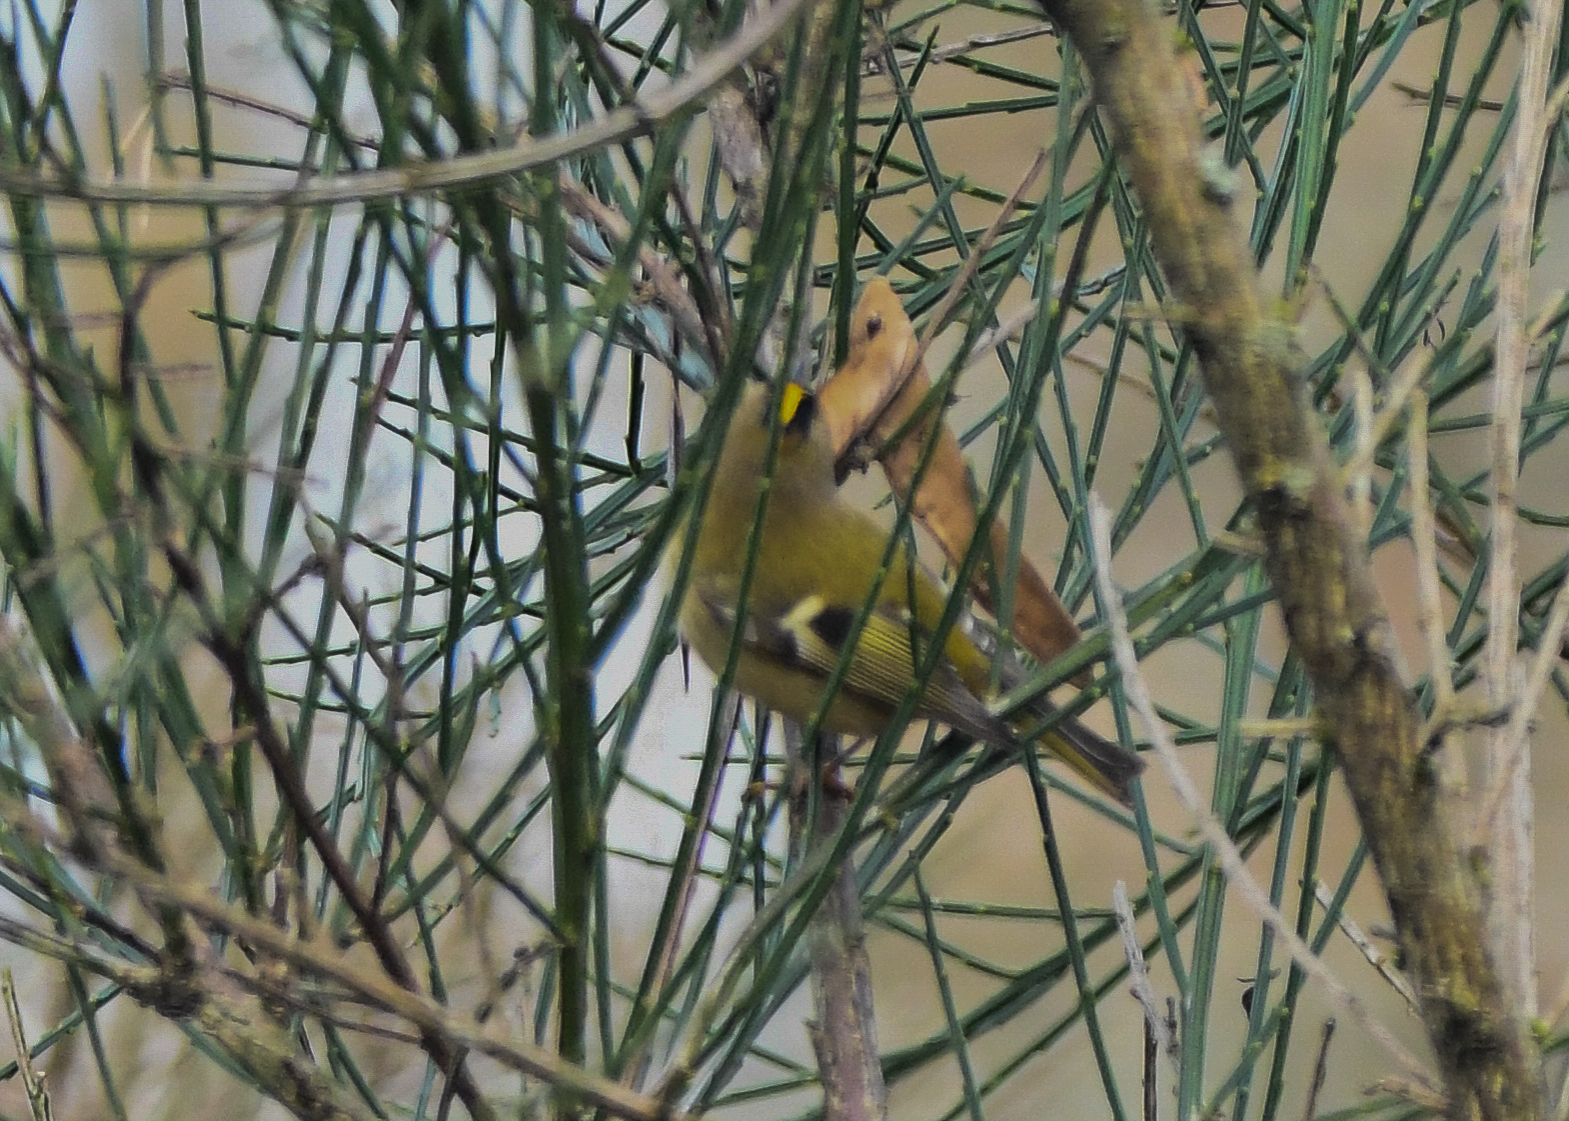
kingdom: Animalia
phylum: Chordata
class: Aves
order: Passeriformes
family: Regulidae
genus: Regulus
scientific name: Regulus regulus
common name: Goldcrest
